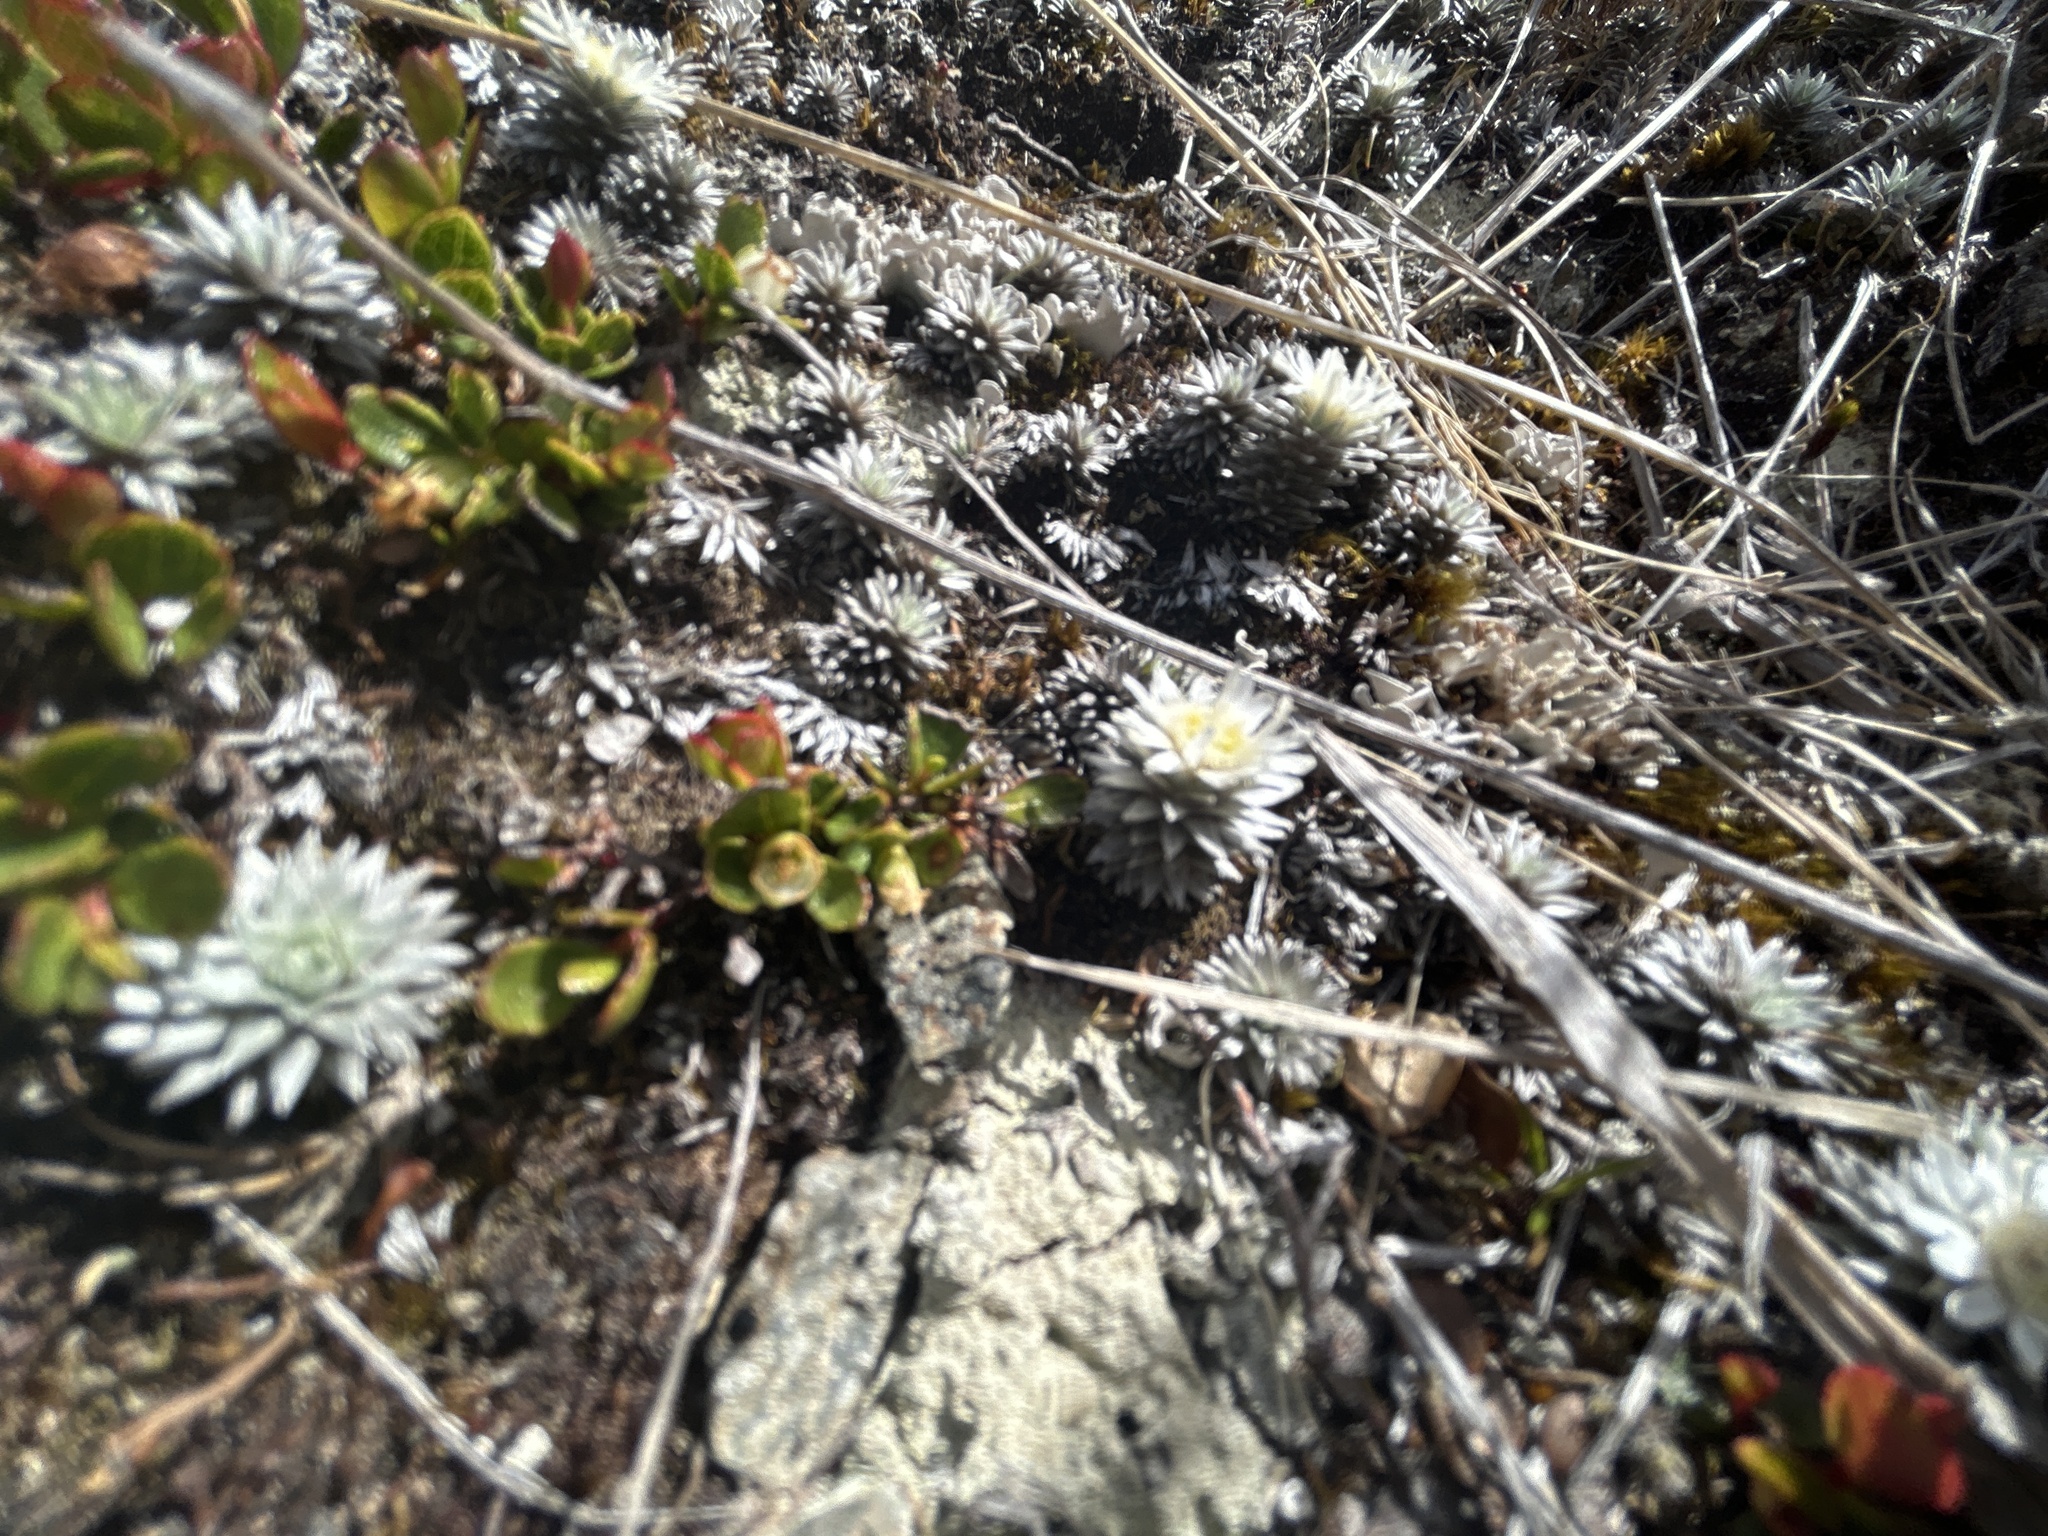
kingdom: Plantae
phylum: Tracheophyta
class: Magnoliopsida
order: Asterales
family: Asteraceae
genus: Raoulia
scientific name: Raoulia grandiflora
